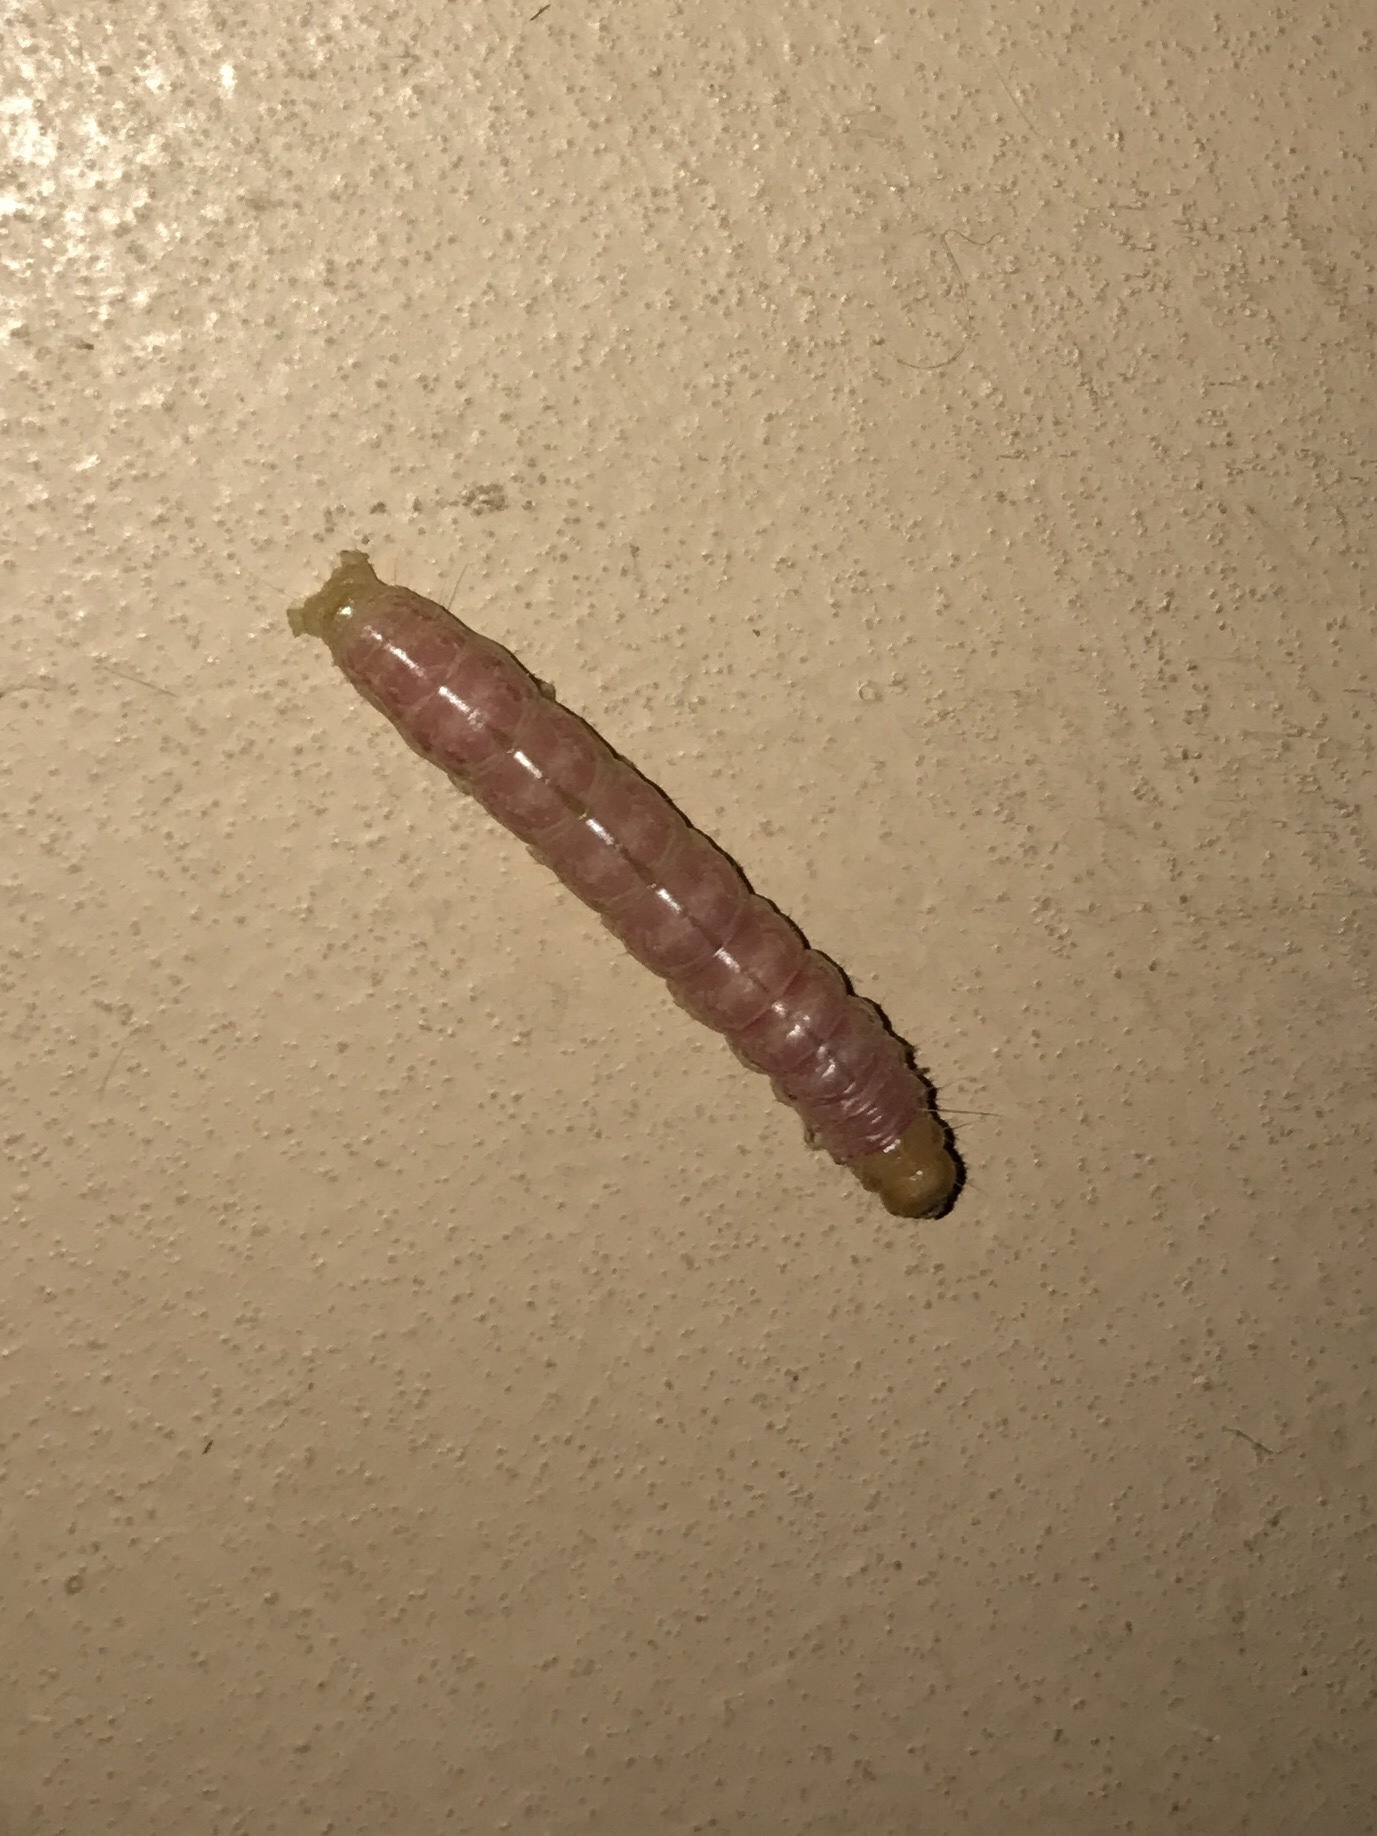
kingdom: Animalia
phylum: Arthropoda
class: Insecta
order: Lepidoptera
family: Erebidae
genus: Litoprosopus
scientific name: Litoprosopus coachella
